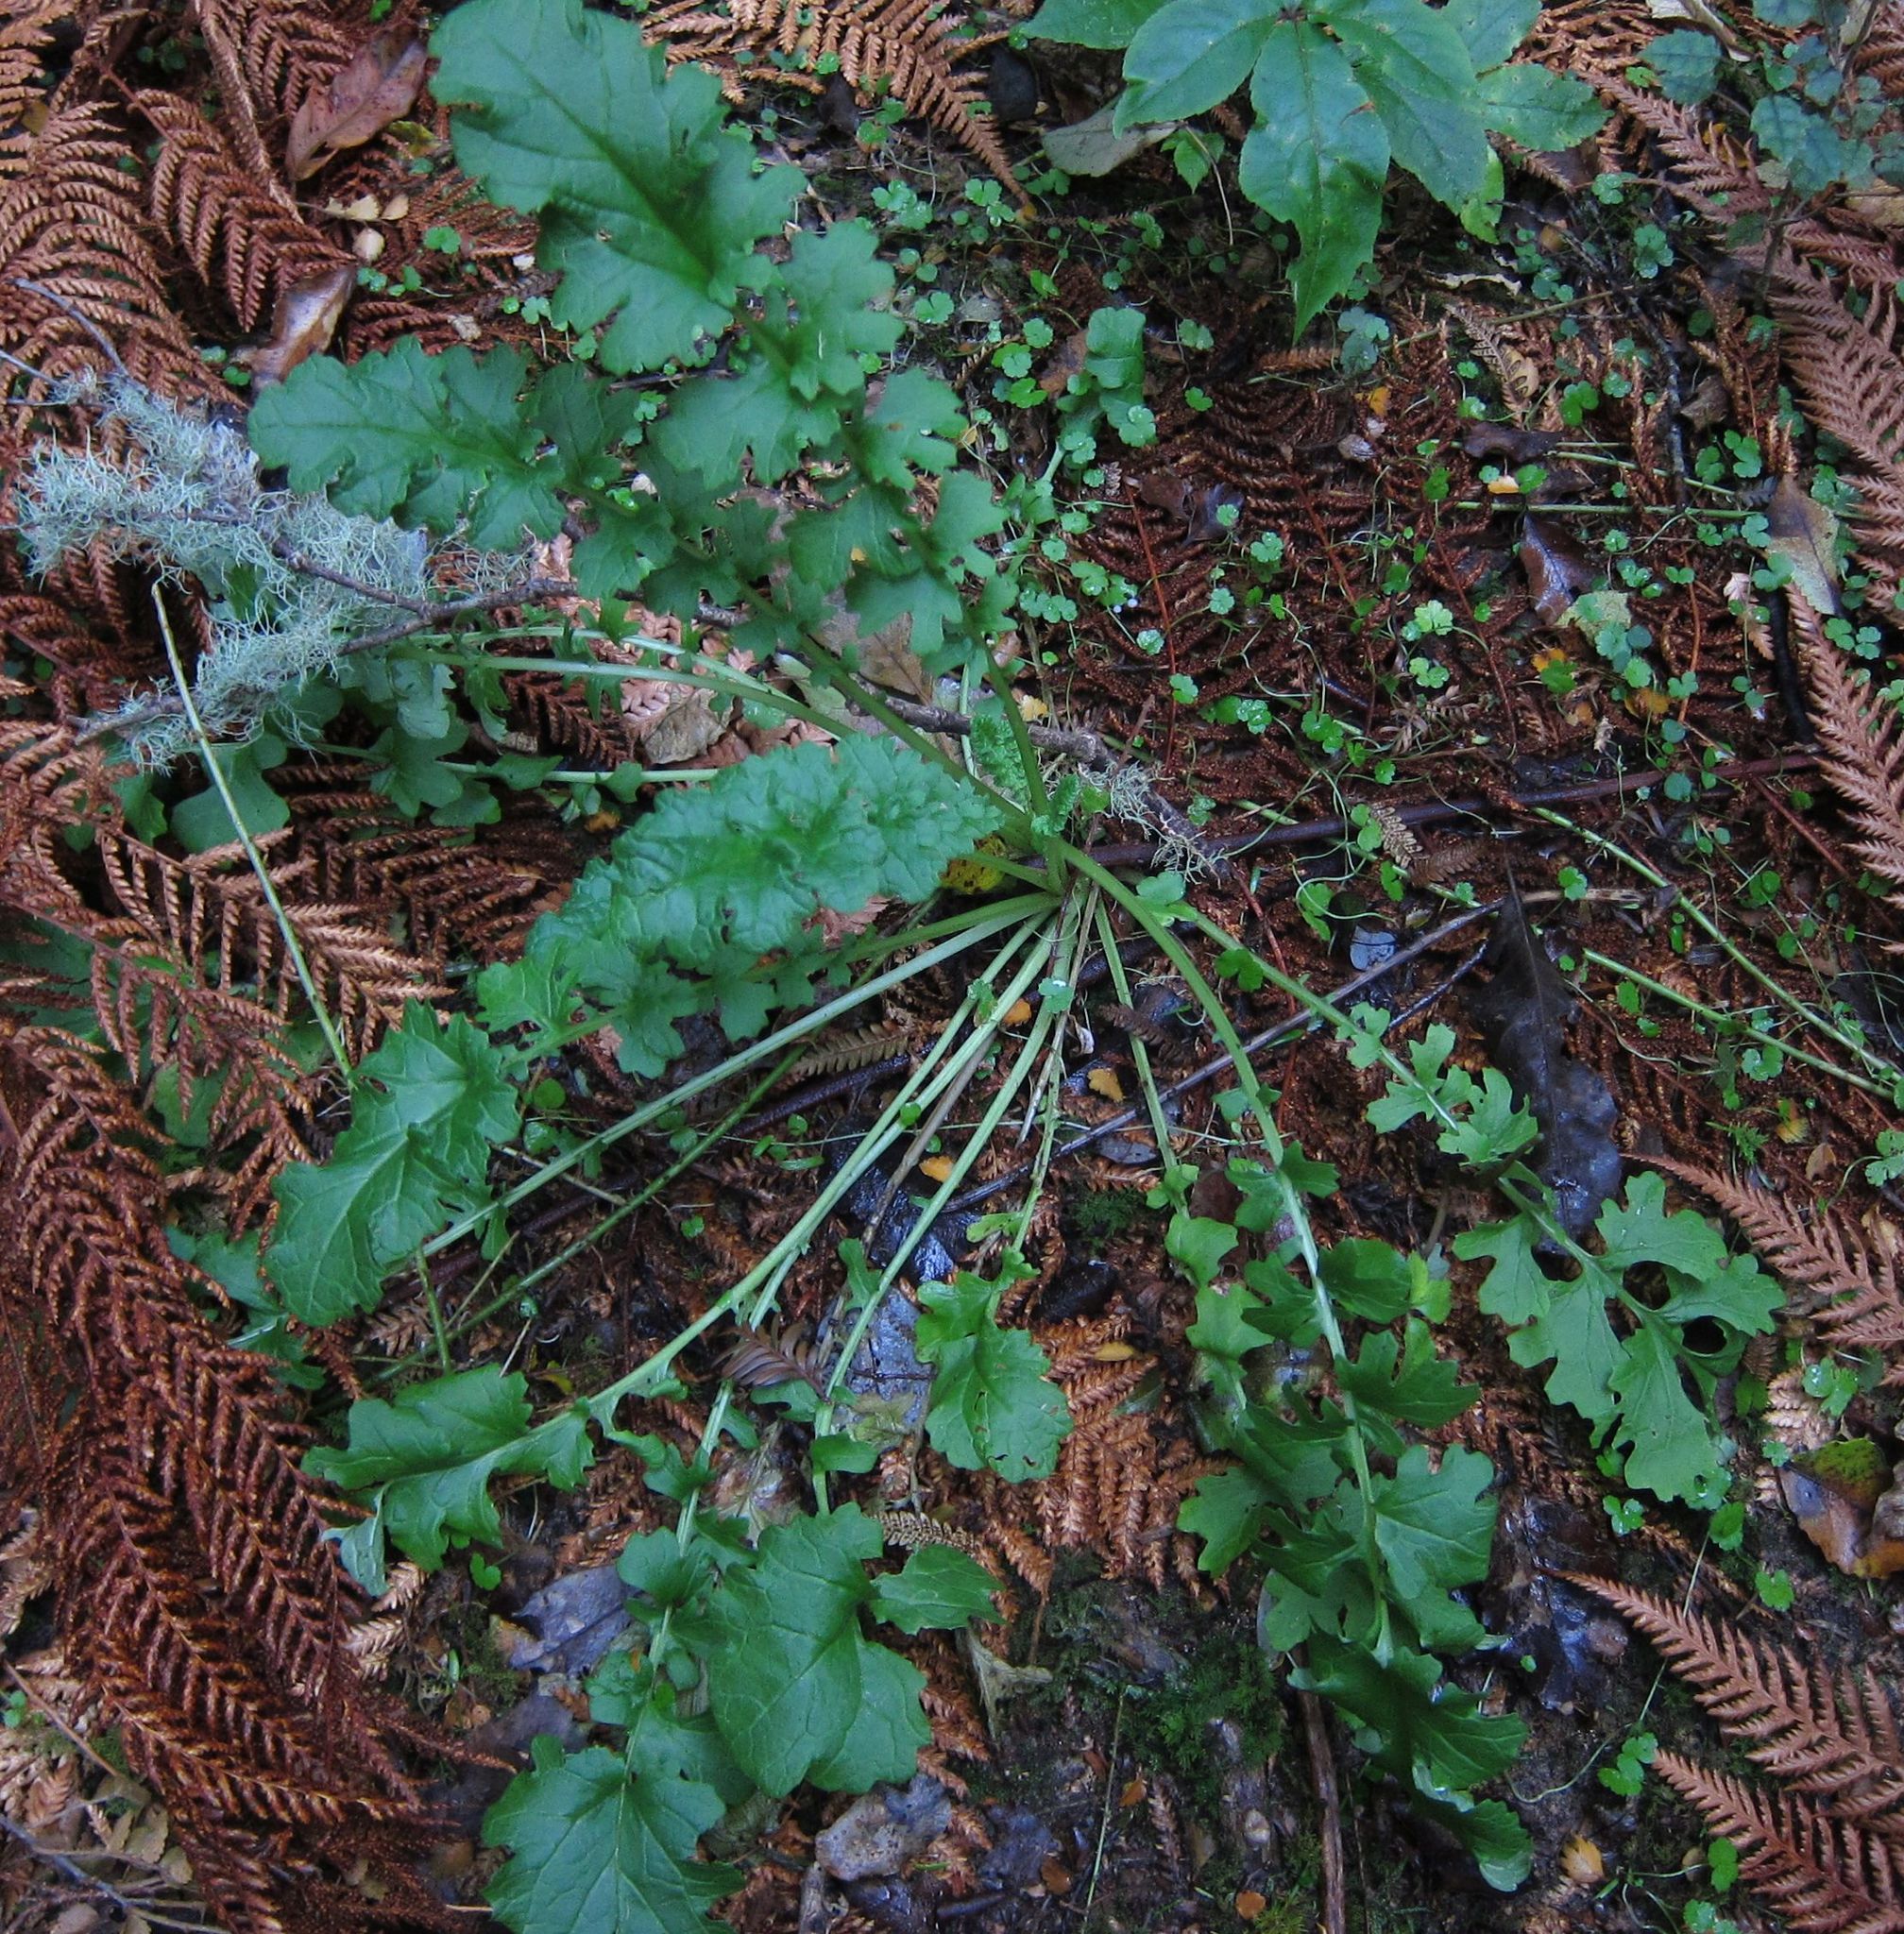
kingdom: Plantae
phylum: Tracheophyta
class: Magnoliopsida
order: Asterales
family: Asteraceae
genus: Jacobaea
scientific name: Jacobaea vulgaris
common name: Stinking willie
